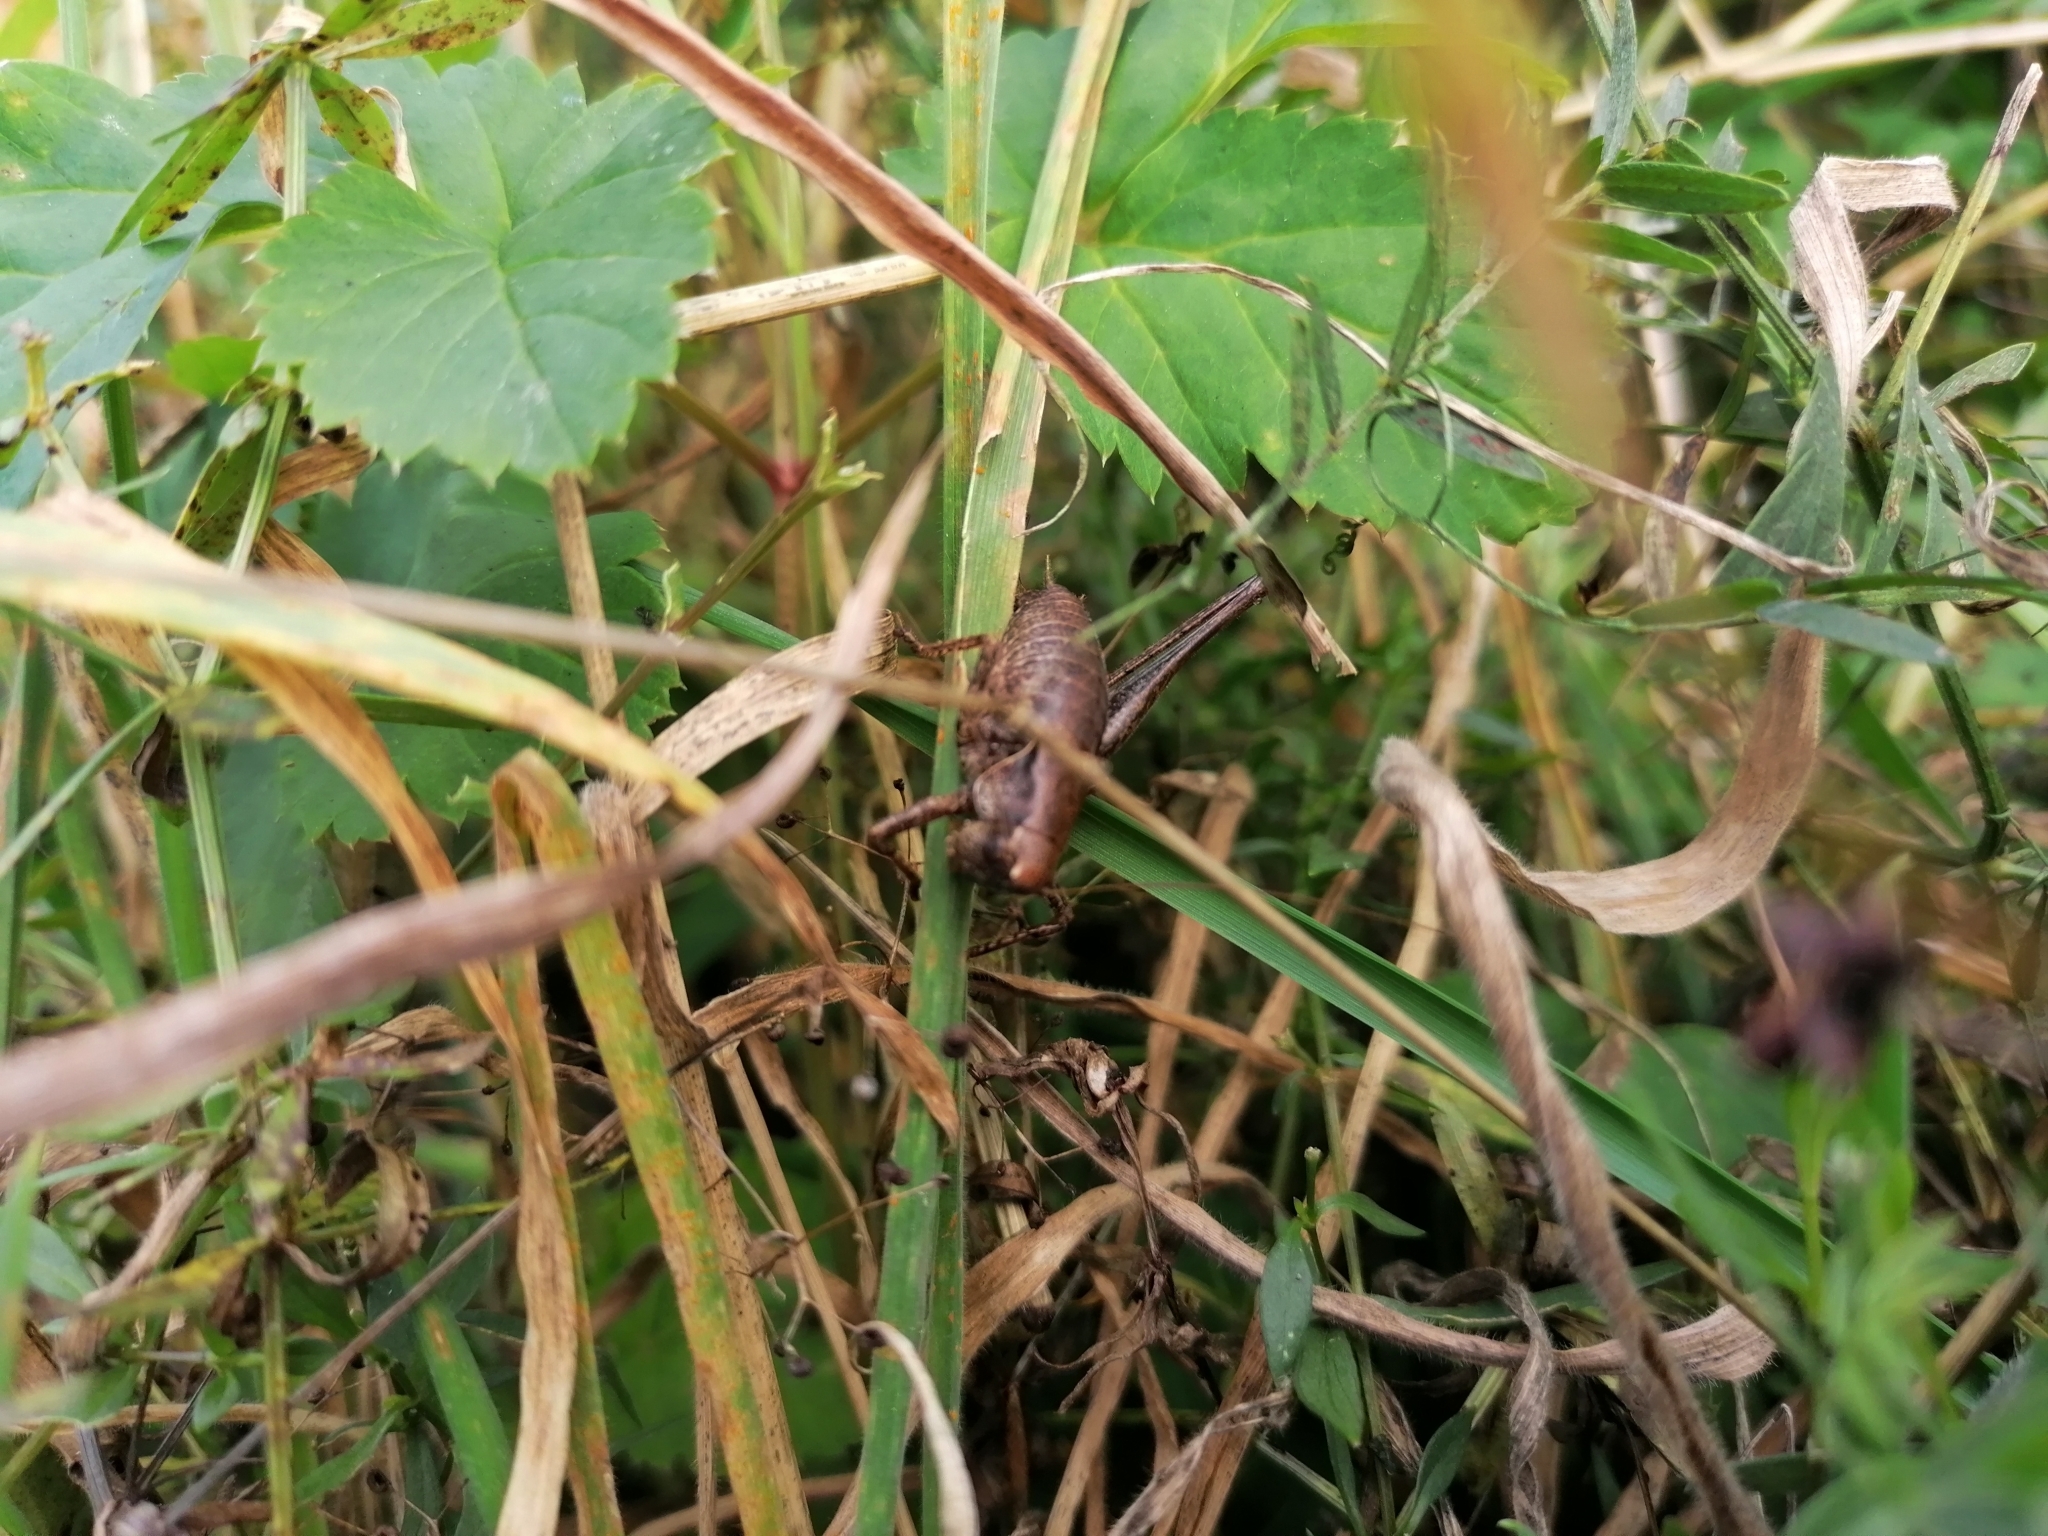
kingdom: Animalia
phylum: Arthropoda
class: Insecta
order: Orthoptera
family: Tettigoniidae
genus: Pholidoptera
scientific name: Pholidoptera griseoaptera
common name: Dark bush-cricket
